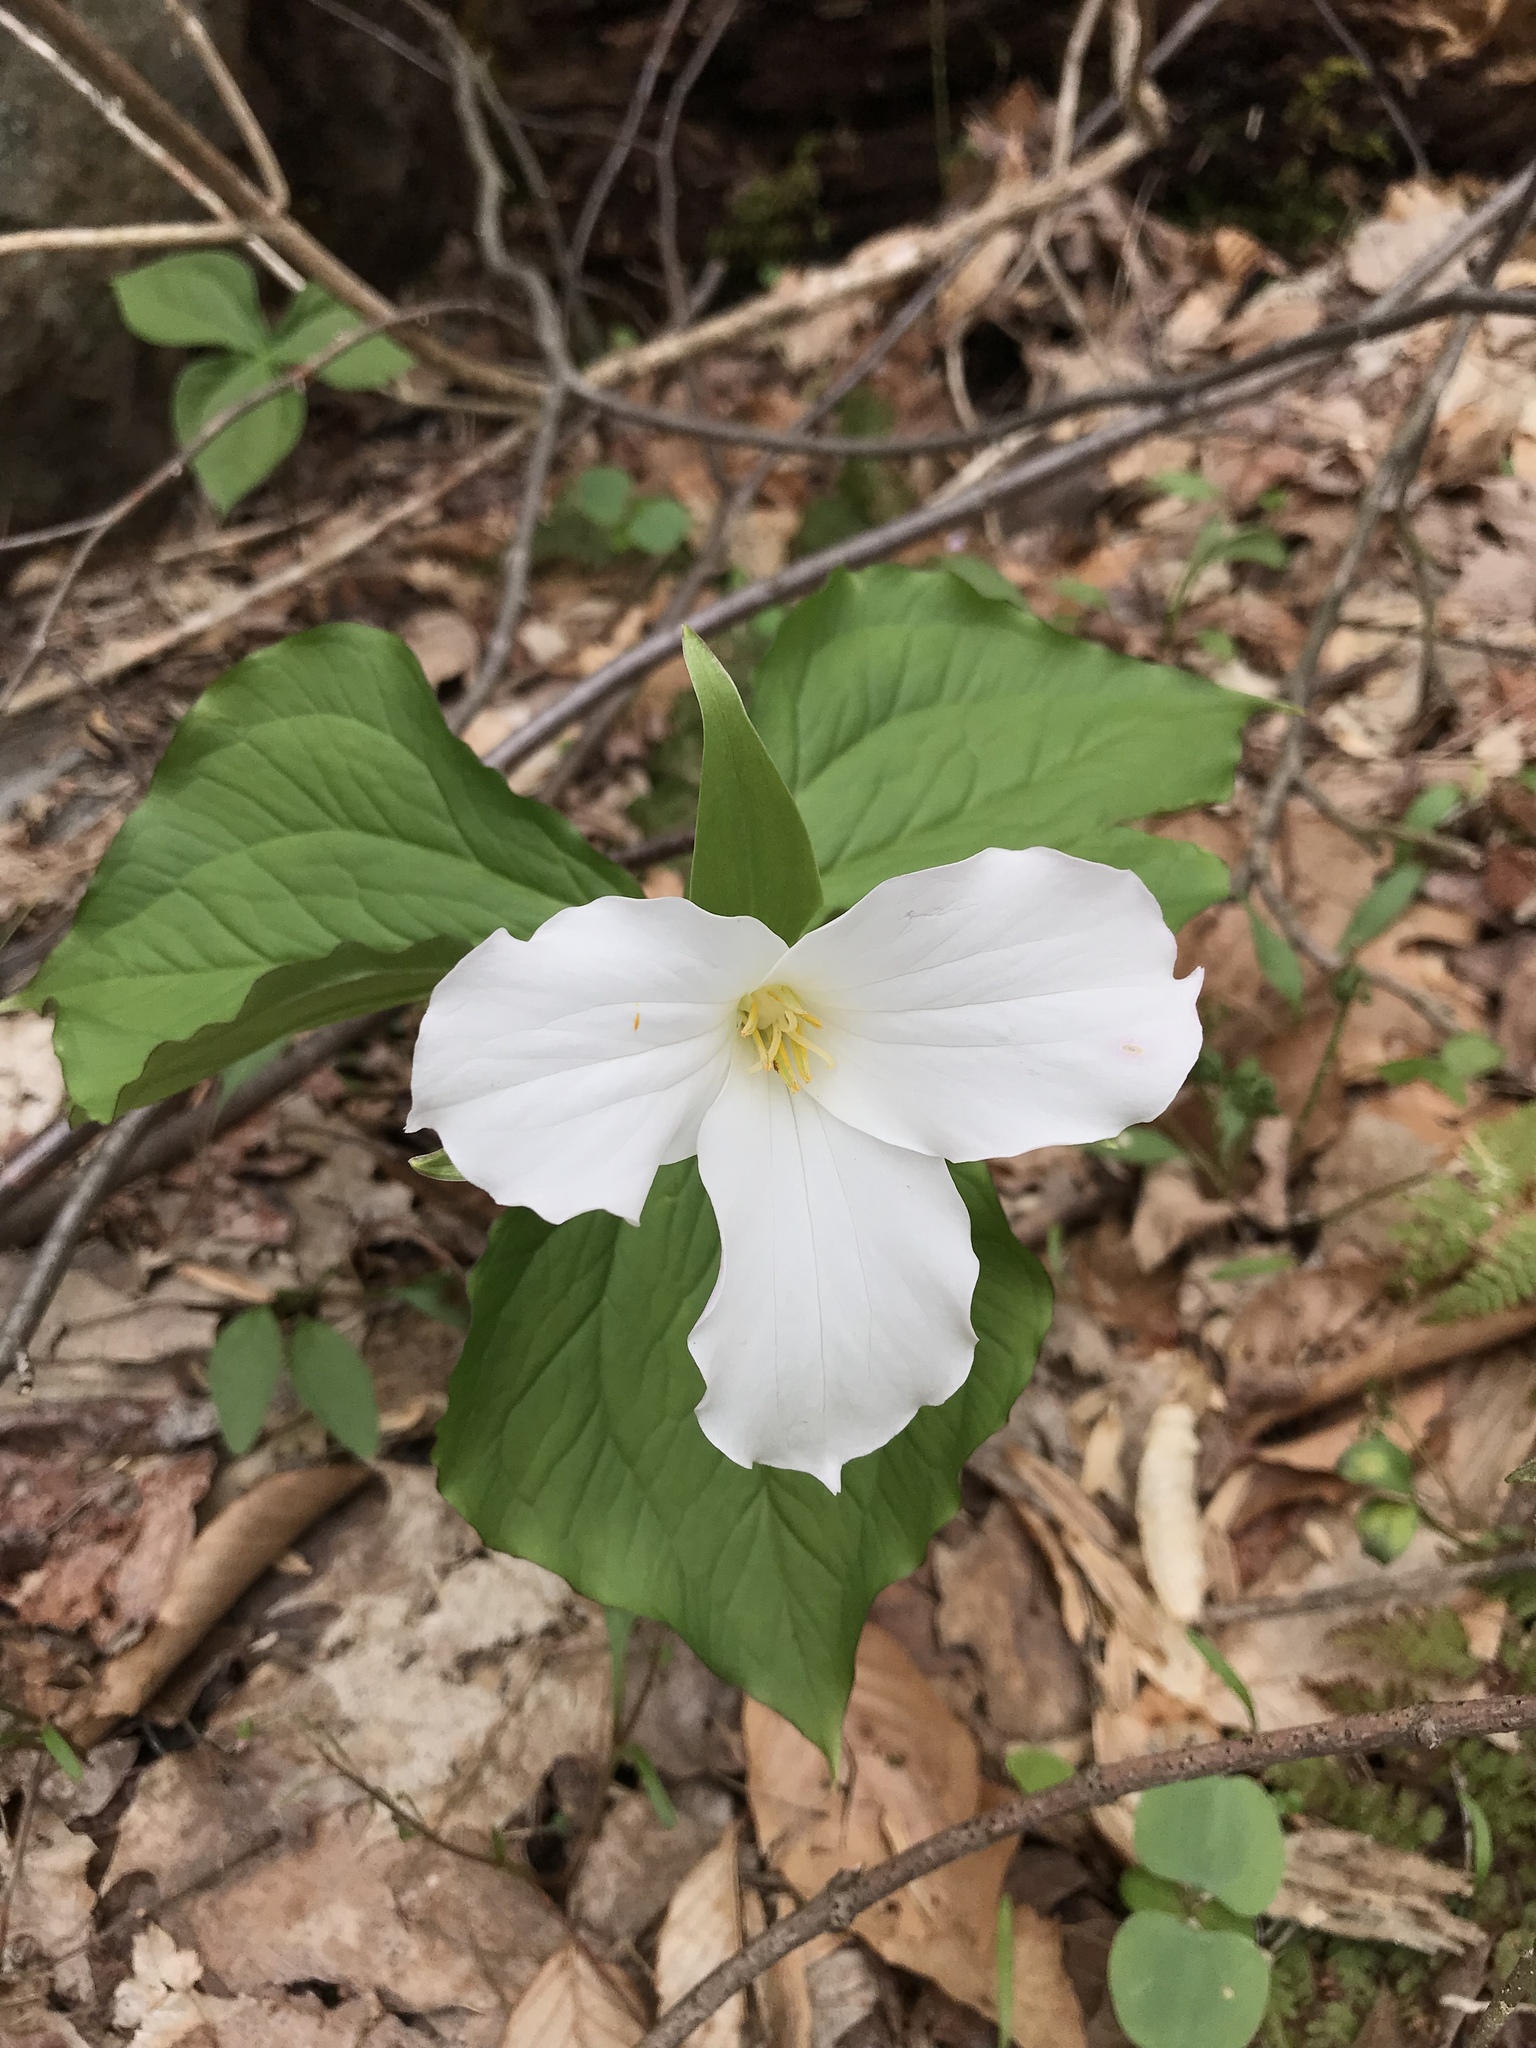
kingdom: Plantae
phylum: Tracheophyta
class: Liliopsida
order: Liliales
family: Melanthiaceae
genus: Trillium
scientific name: Trillium grandiflorum
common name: Great white trillium
